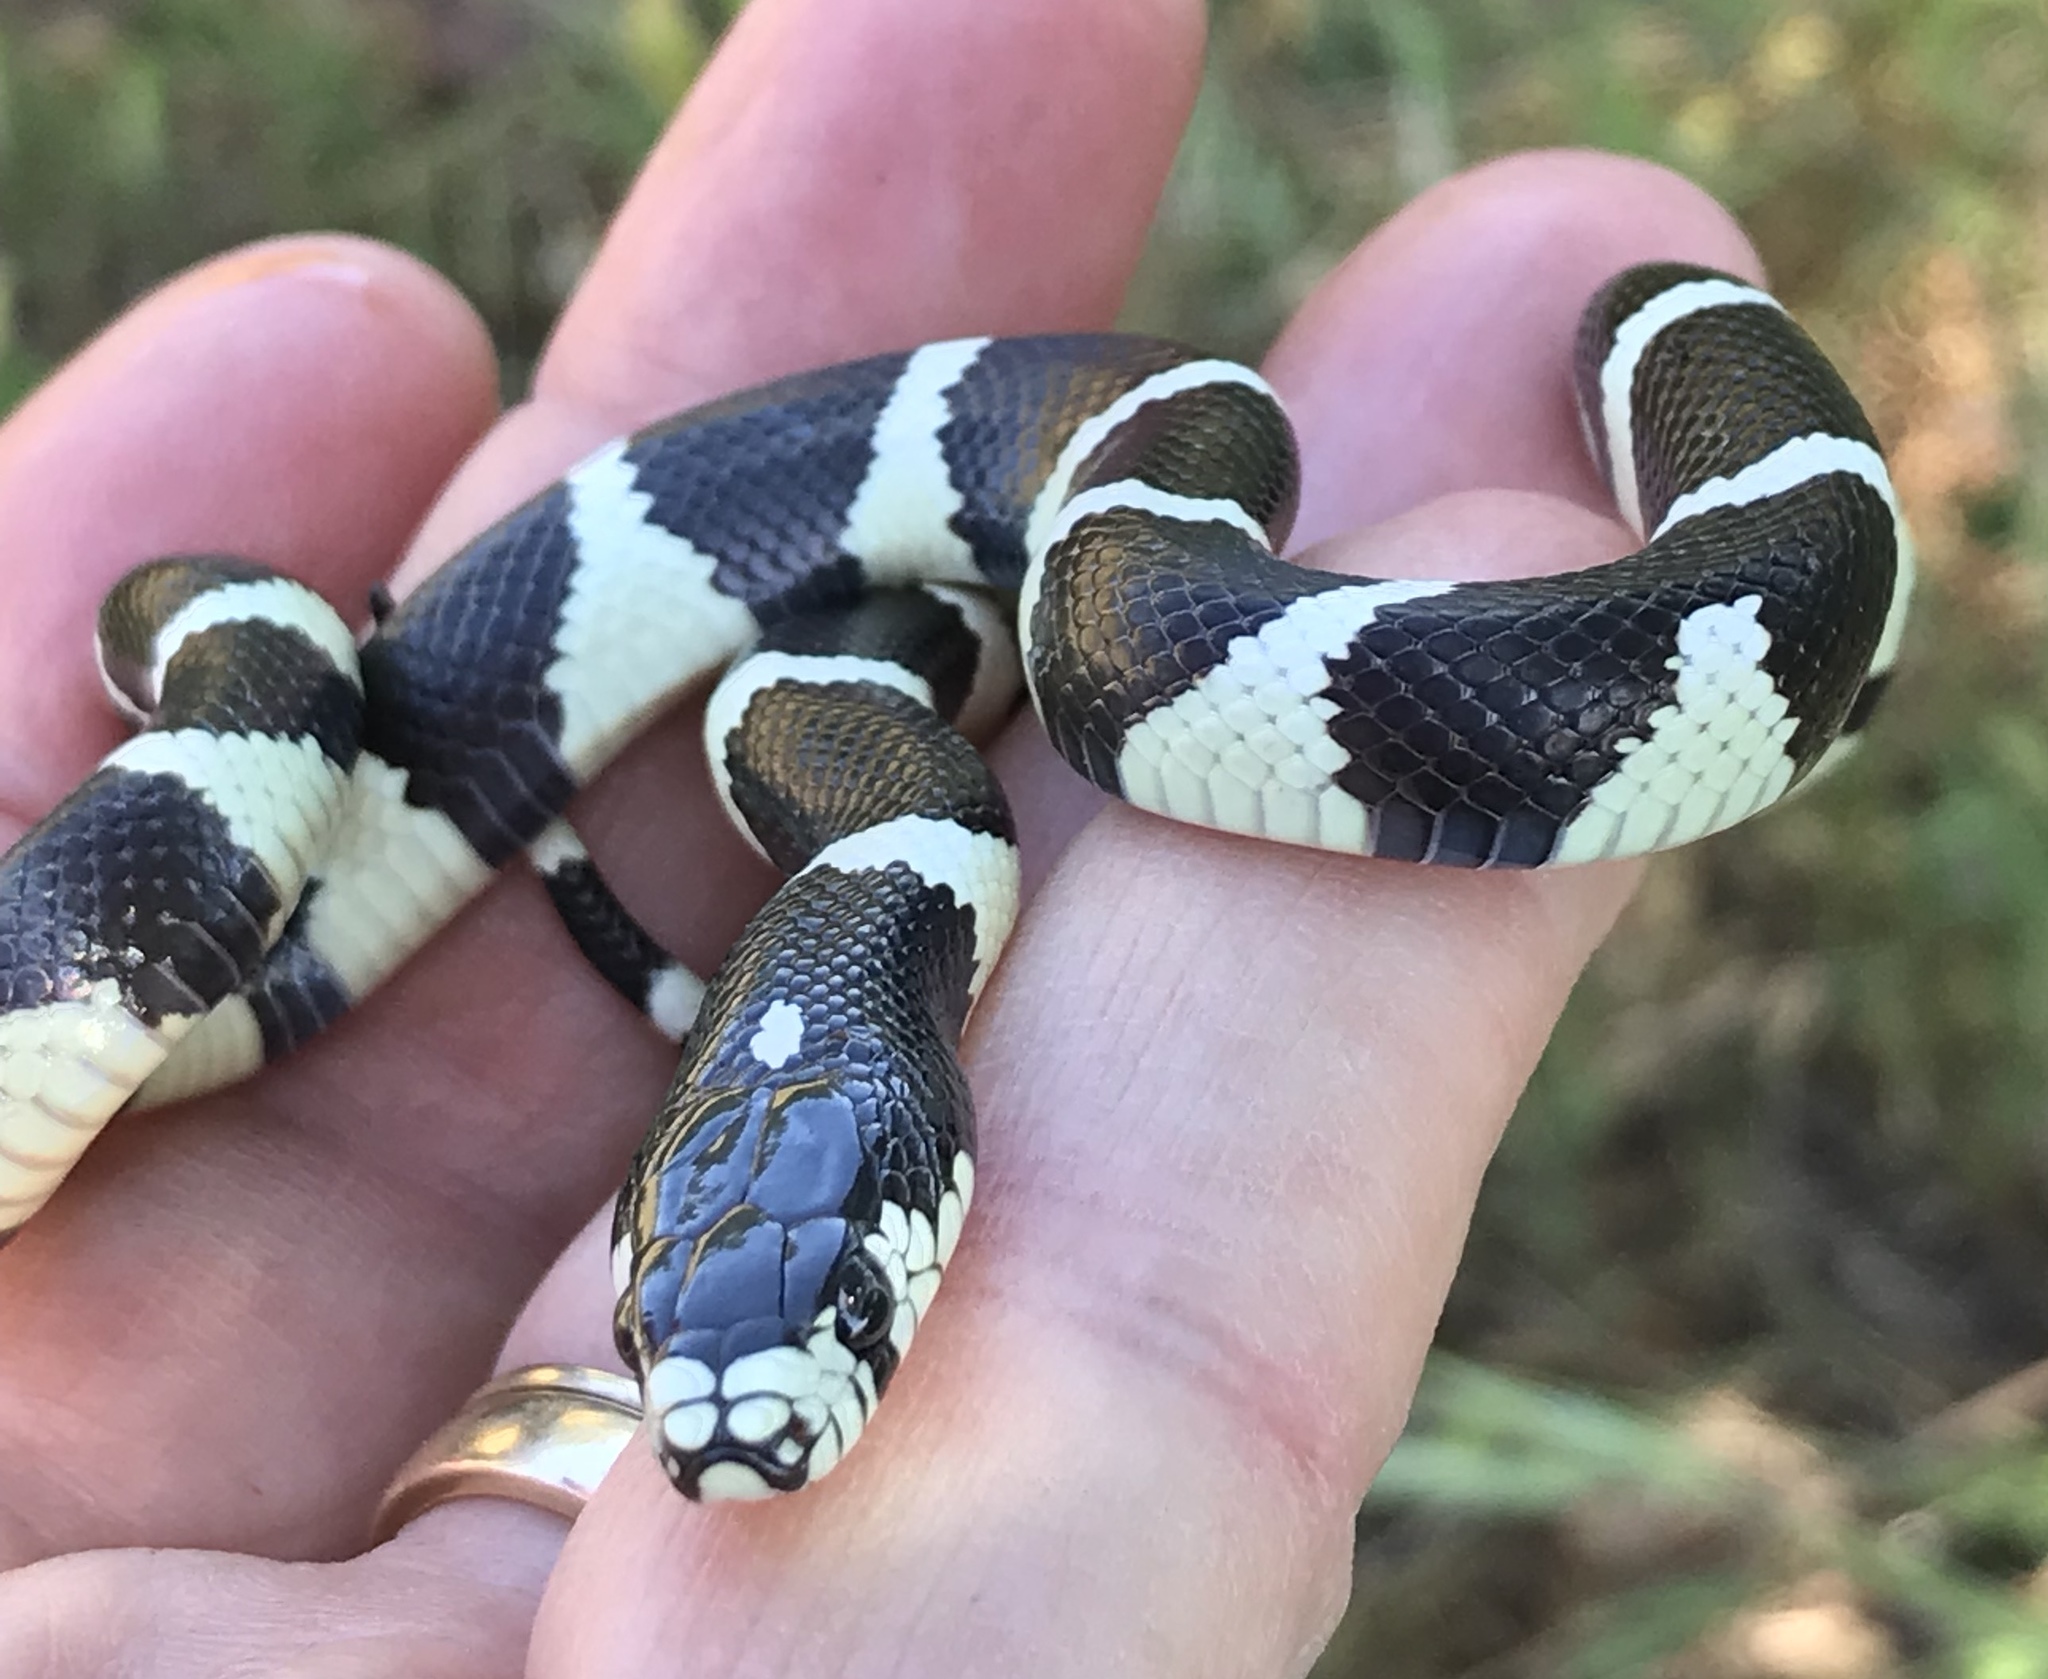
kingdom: Animalia
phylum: Chordata
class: Squamata
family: Colubridae
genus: Lampropeltis
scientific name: Lampropeltis californiae
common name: California kingsnake
